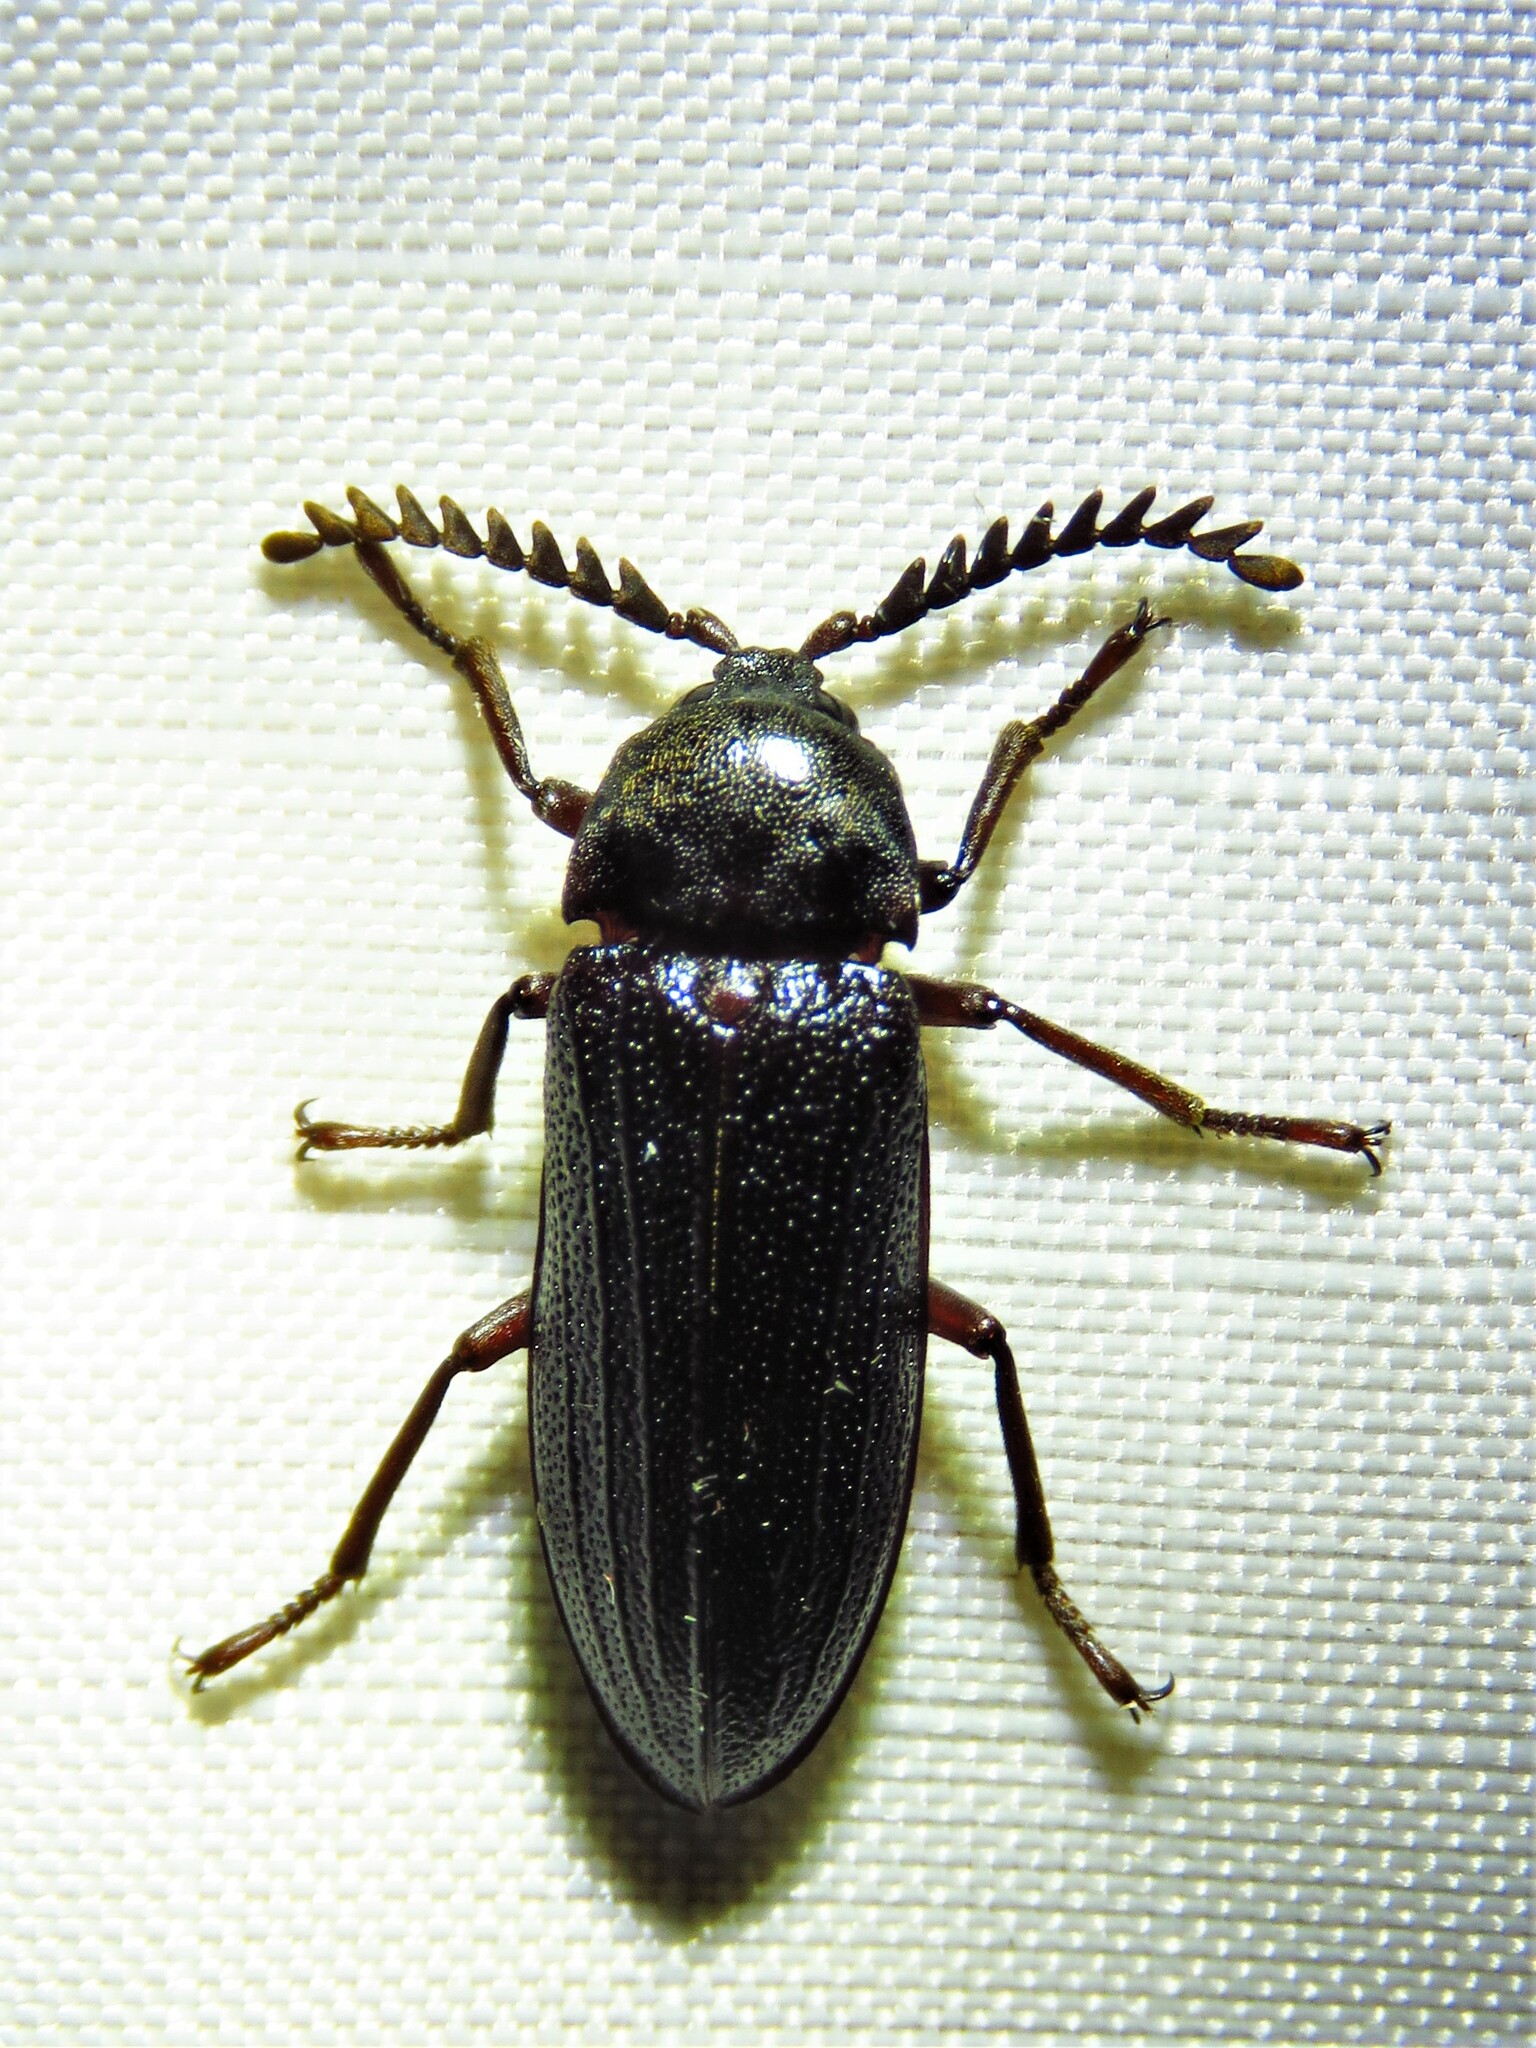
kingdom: Animalia
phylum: Arthropoda
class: Insecta
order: Coleoptera
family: Callirhipidae
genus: Zenoa
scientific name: Zenoa picea
